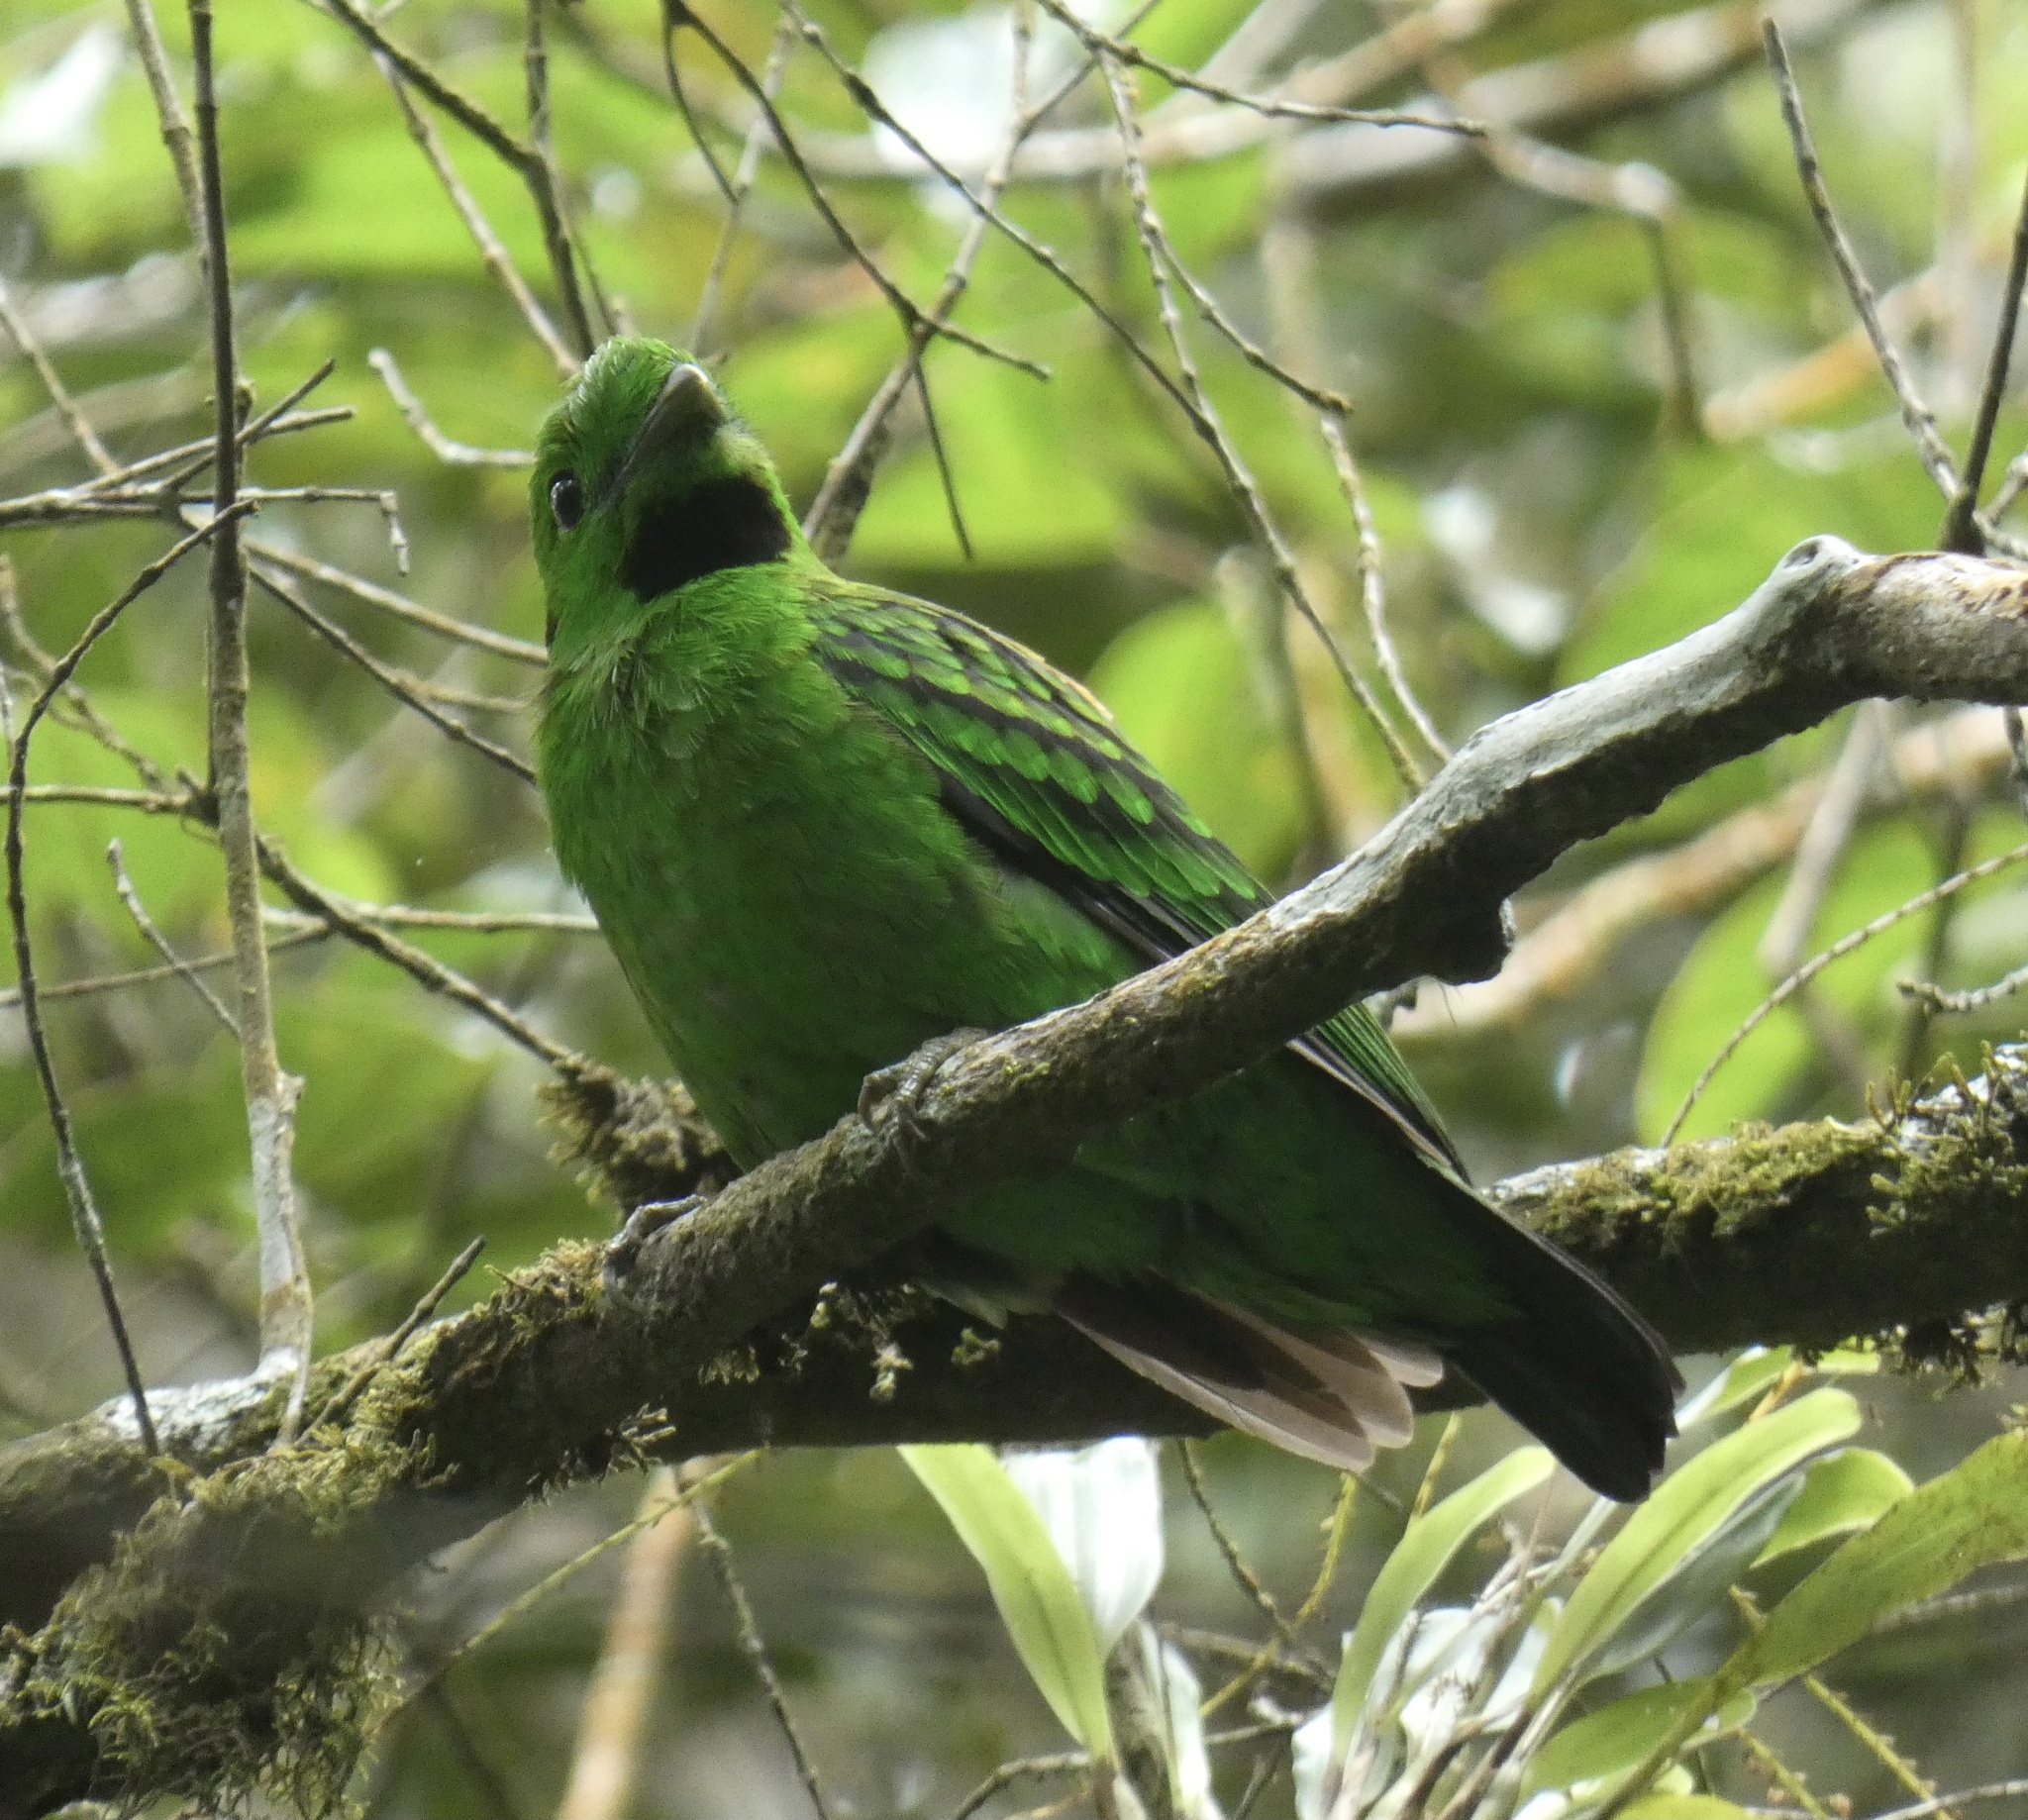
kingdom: Animalia
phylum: Chordata
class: Aves
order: Passeriformes
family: Eurylaimidae
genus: Calyptomena
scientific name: Calyptomena whiteheadi
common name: Whitehead's broadbill
